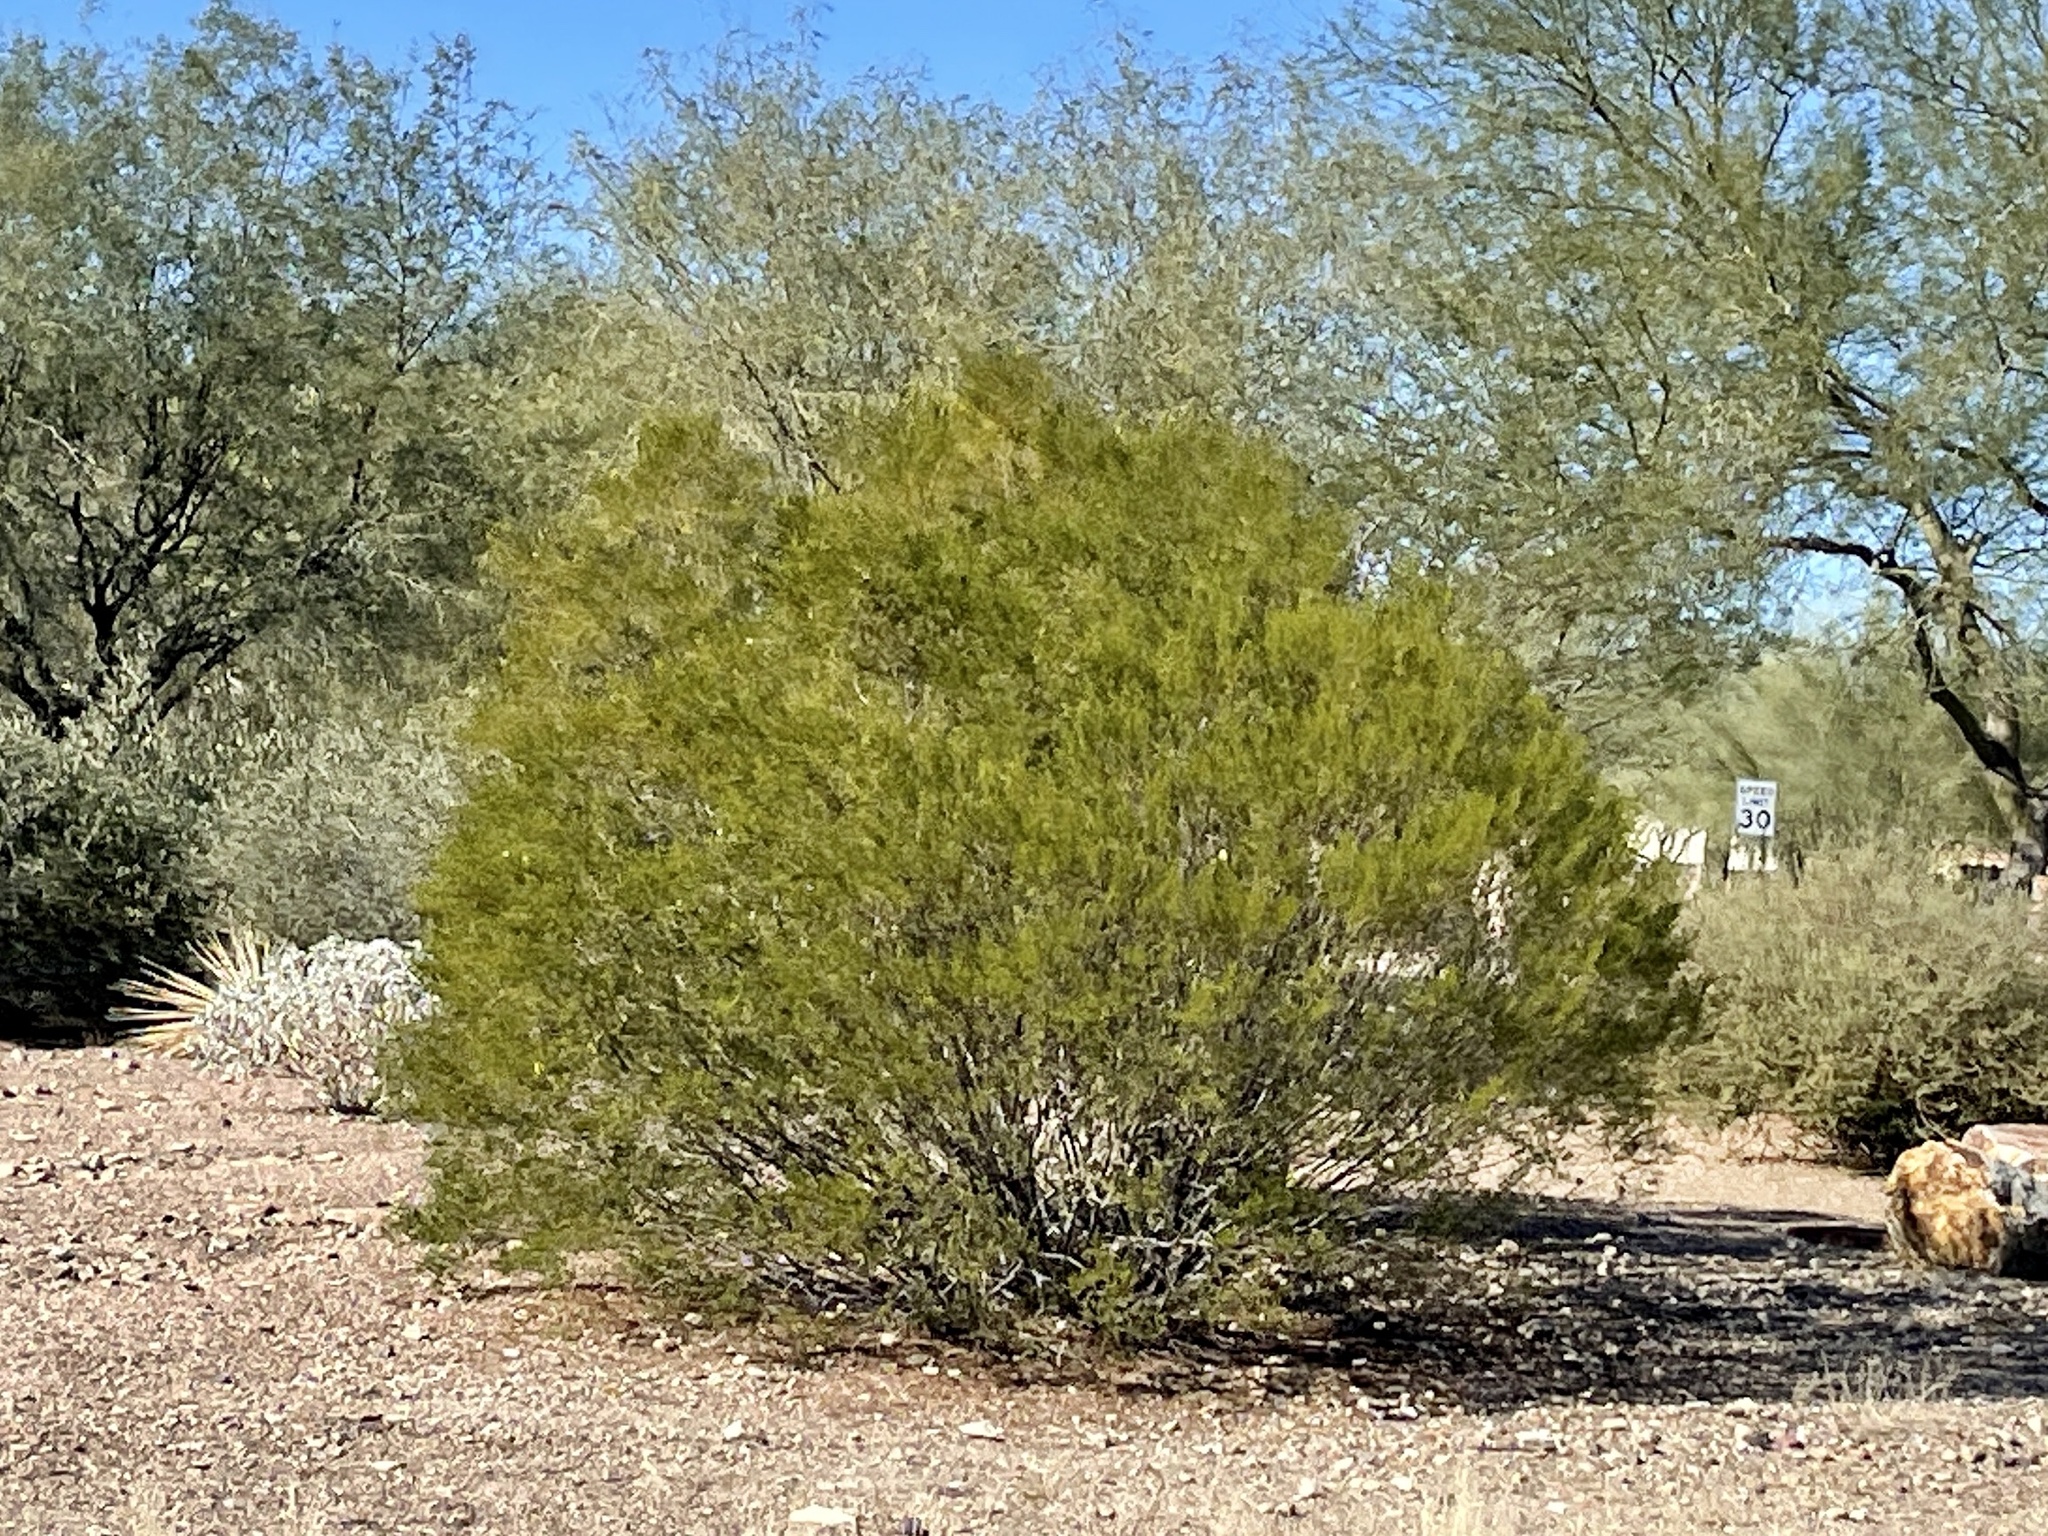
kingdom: Plantae
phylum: Tracheophyta
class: Magnoliopsida
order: Zygophyllales
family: Zygophyllaceae
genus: Larrea
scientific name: Larrea tridentata
